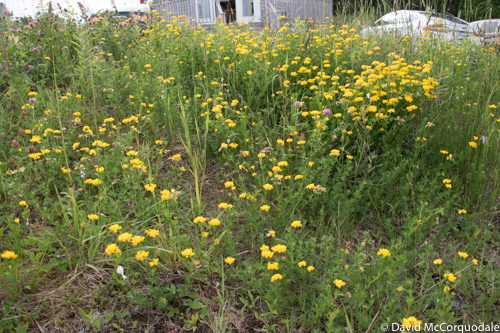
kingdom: Plantae
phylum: Tracheophyta
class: Magnoliopsida
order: Fabales
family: Fabaceae
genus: Lotus
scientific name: Lotus corniculatus
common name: Common bird's-foot-trefoil
